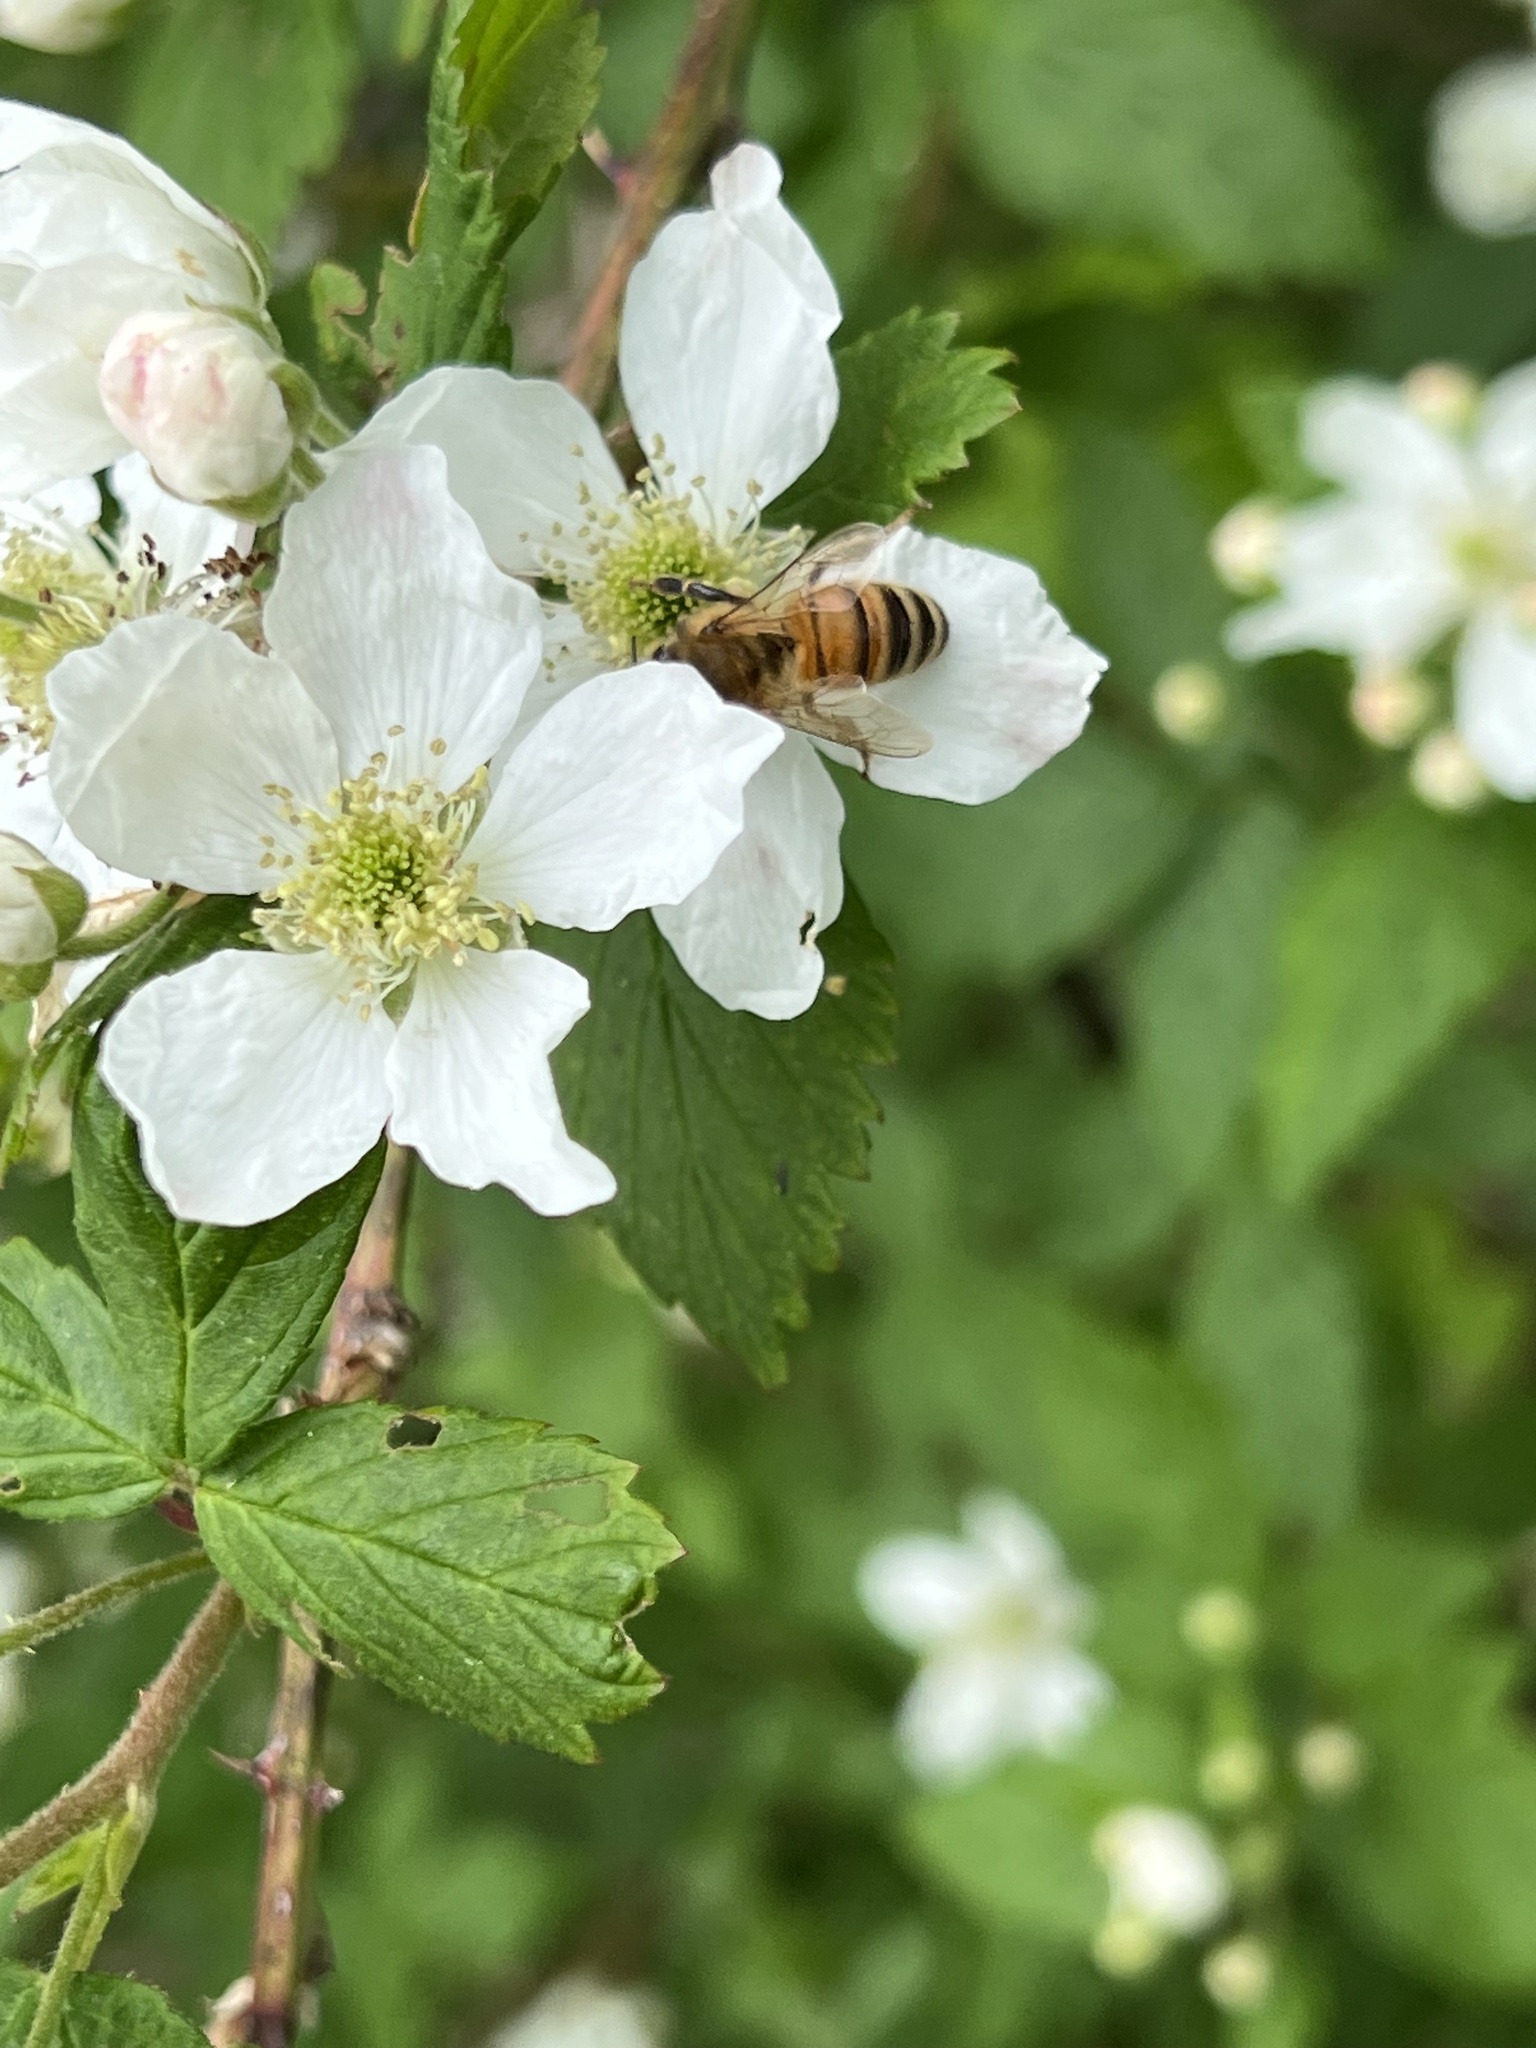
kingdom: Animalia
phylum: Arthropoda
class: Insecta
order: Hymenoptera
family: Apidae
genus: Apis
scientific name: Apis mellifera
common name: Honey bee
